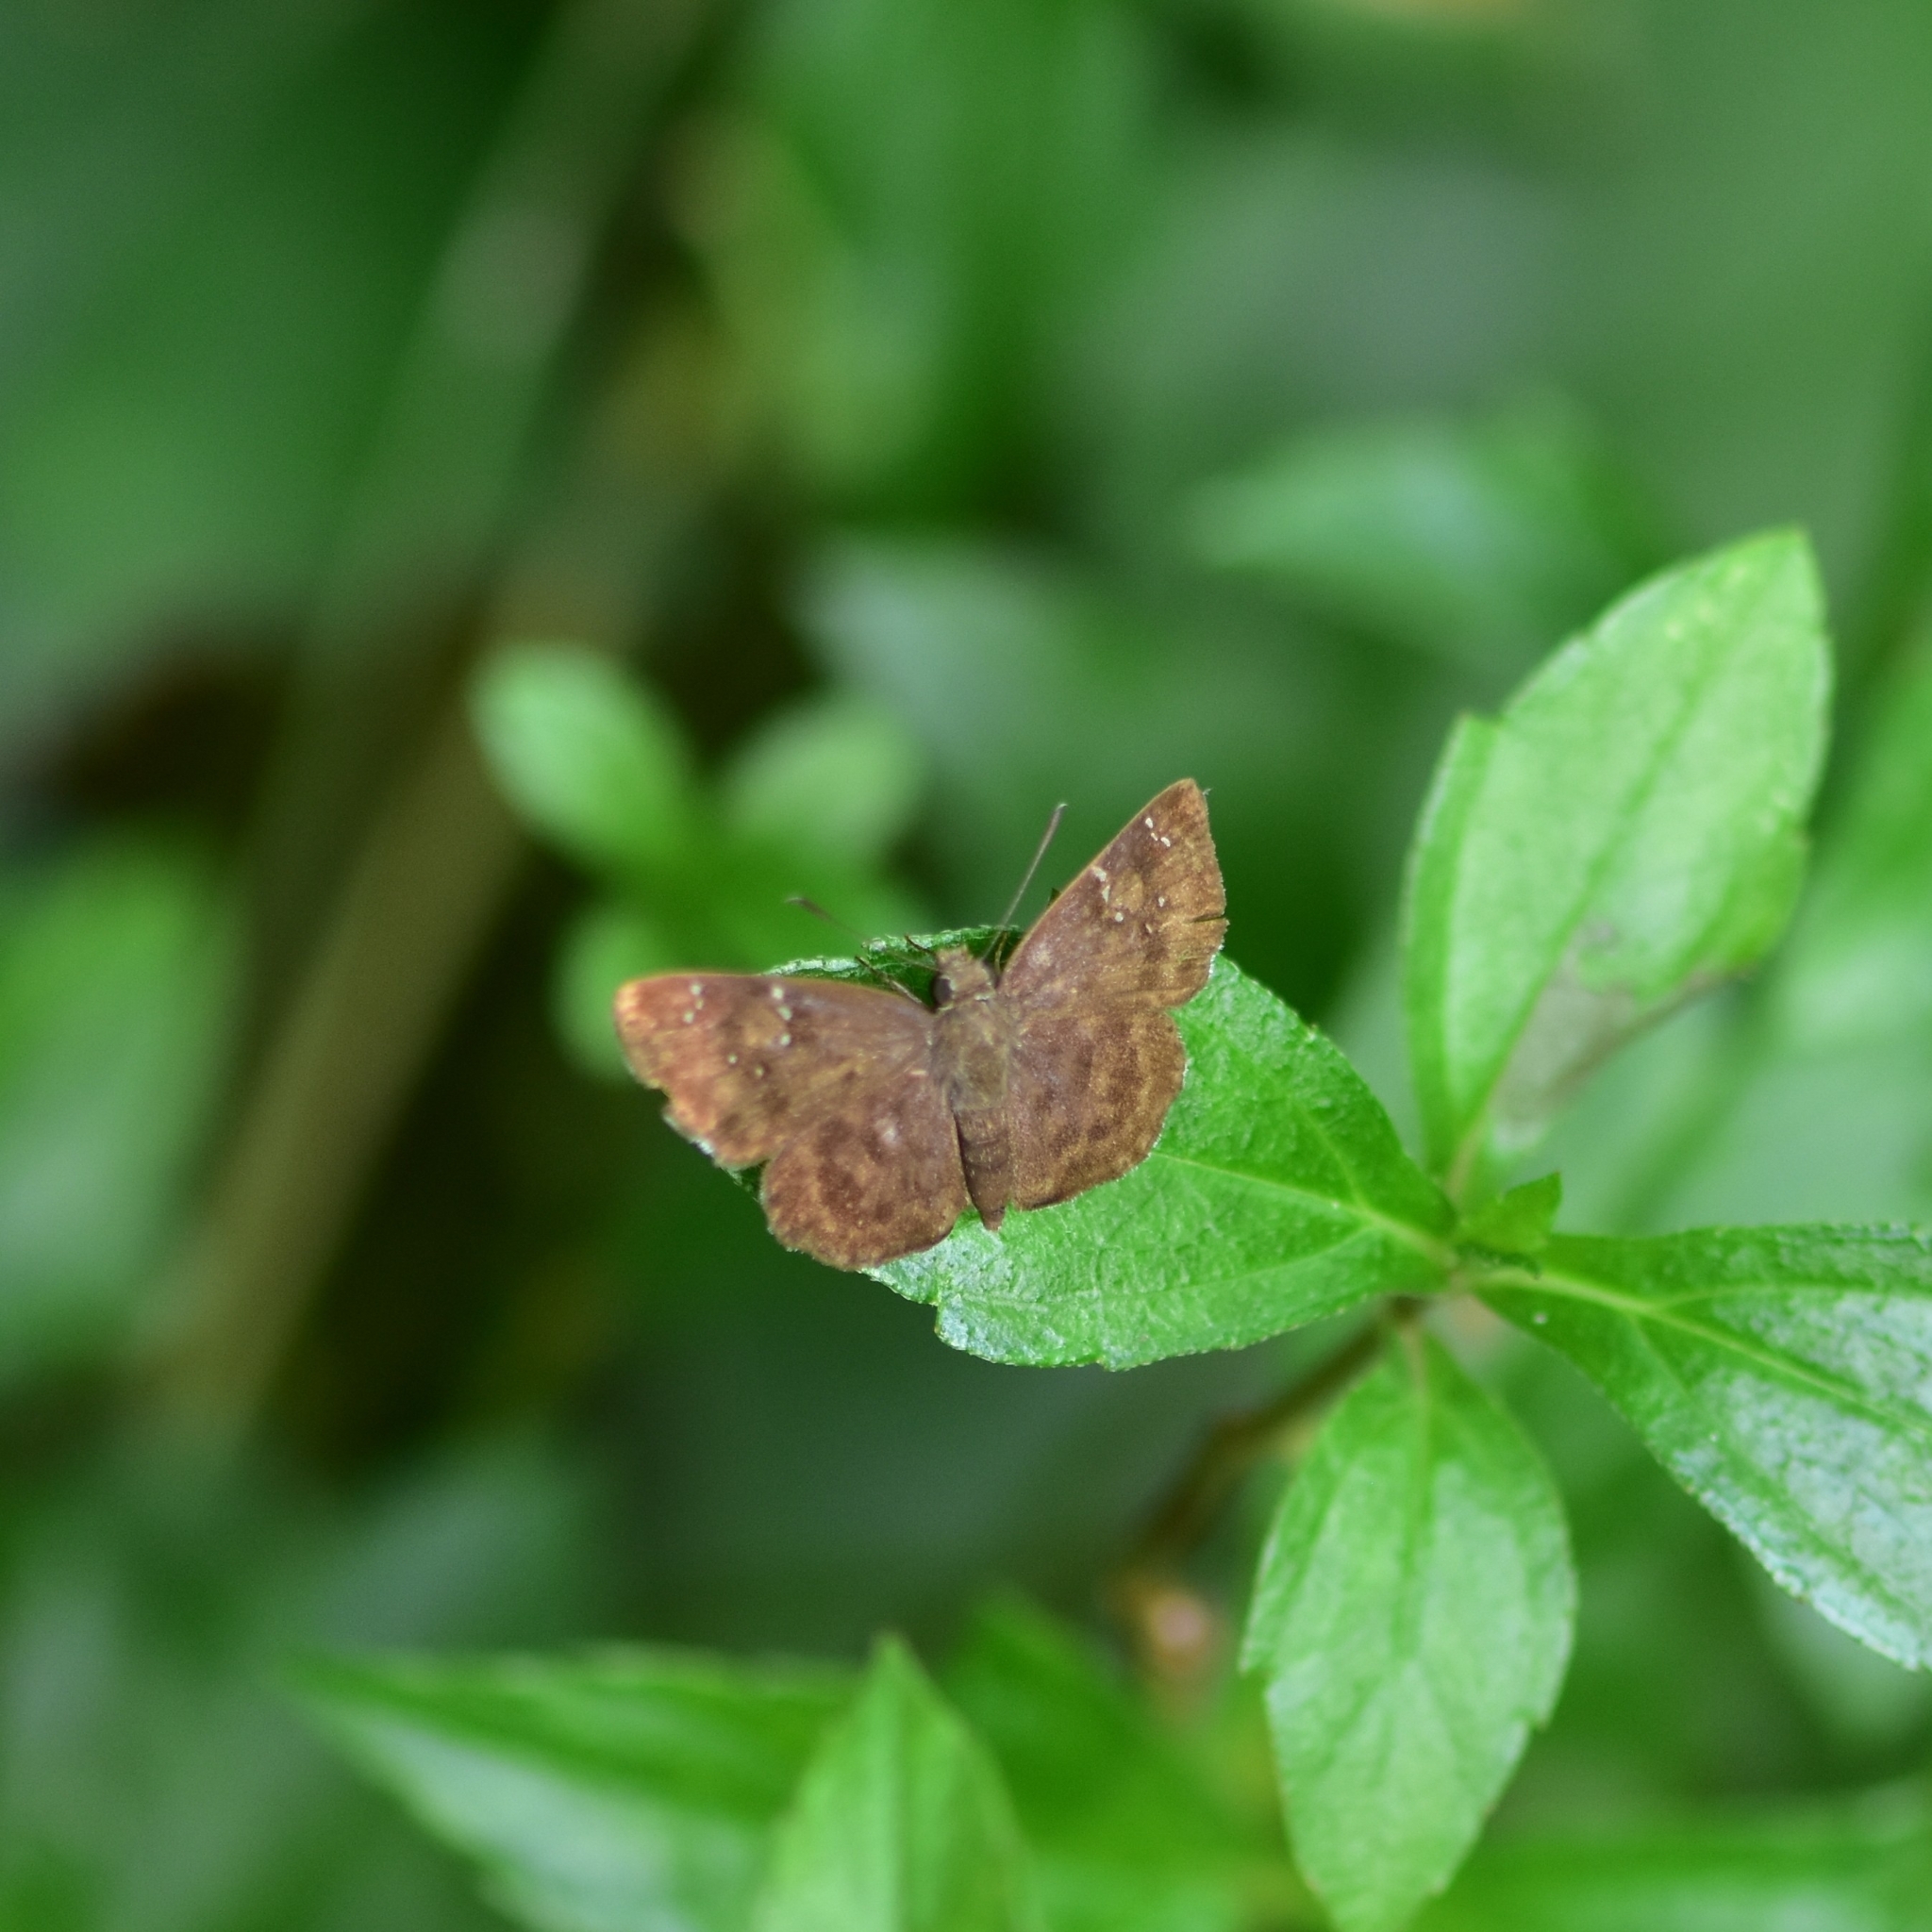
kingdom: Animalia
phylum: Arthropoda
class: Insecta
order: Lepidoptera
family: Hesperiidae
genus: Sarangesa
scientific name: Sarangesa dasahara
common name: Common small flat
